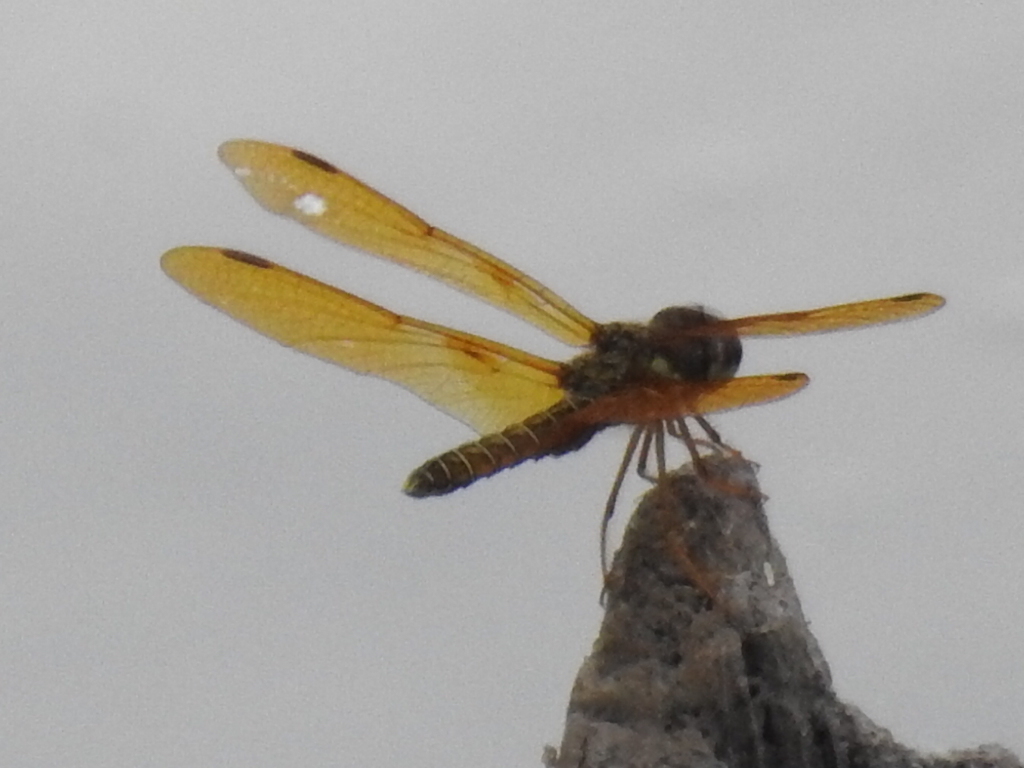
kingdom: Animalia
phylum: Arthropoda
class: Insecta
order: Odonata
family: Libellulidae
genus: Perithemis
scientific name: Perithemis tenera
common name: Eastern amberwing
